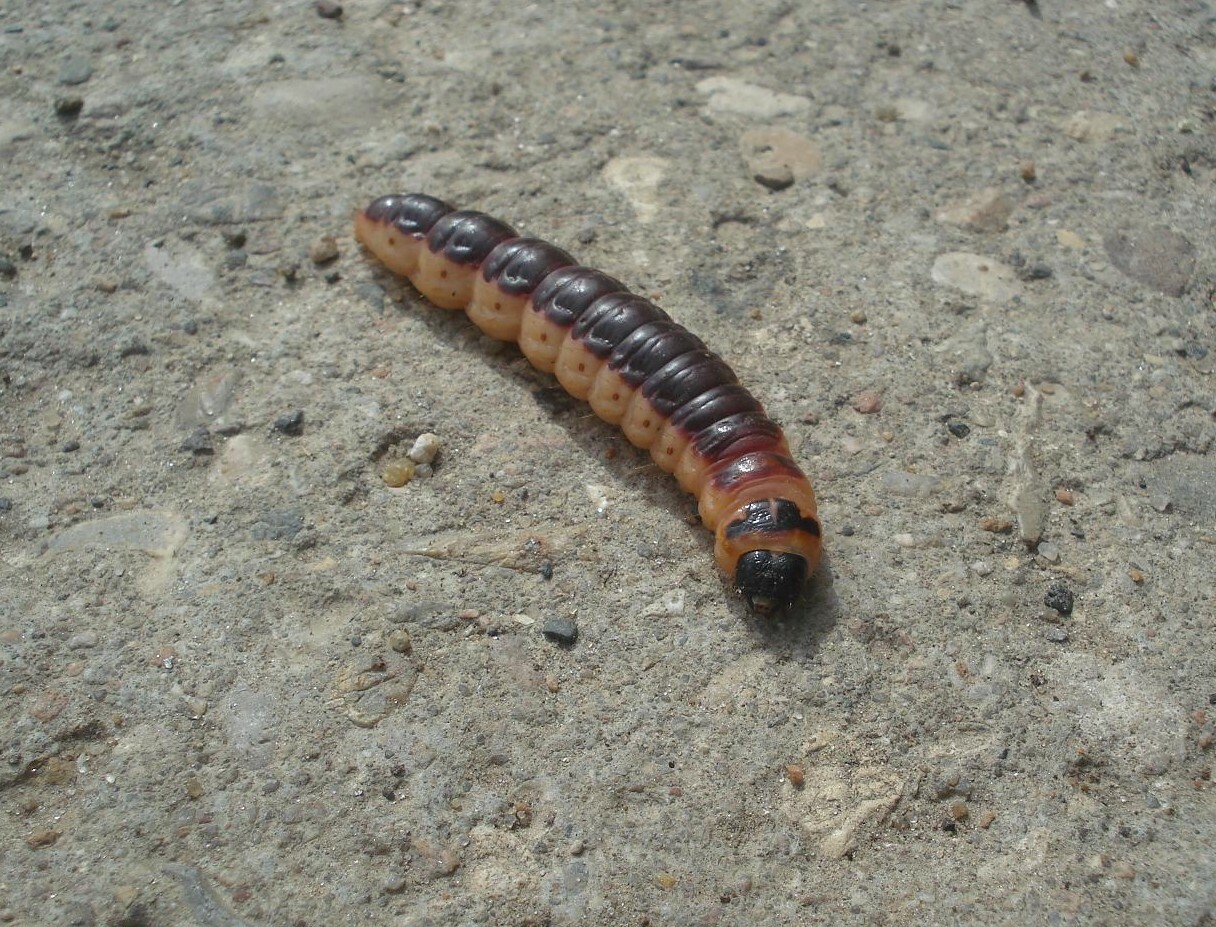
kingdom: Animalia
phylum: Arthropoda
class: Insecta
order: Lepidoptera
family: Cossidae
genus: Cossus
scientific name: Cossus cossus
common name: Goat moth
